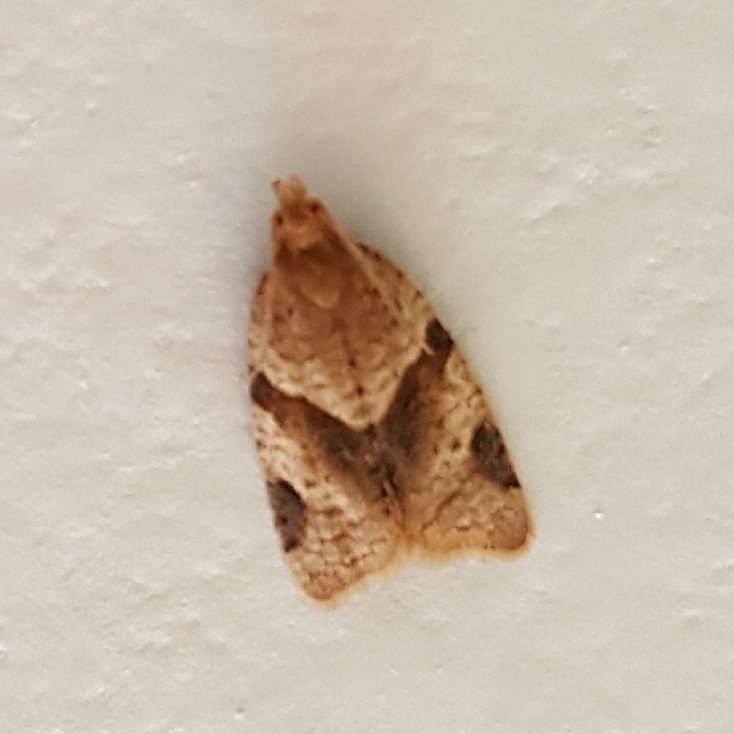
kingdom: Animalia
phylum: Arthropoda
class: Insecta
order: Lepidoptera
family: Tortricidae
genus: Clepsis
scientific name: Clepsis peritana
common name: Garden tortrix
